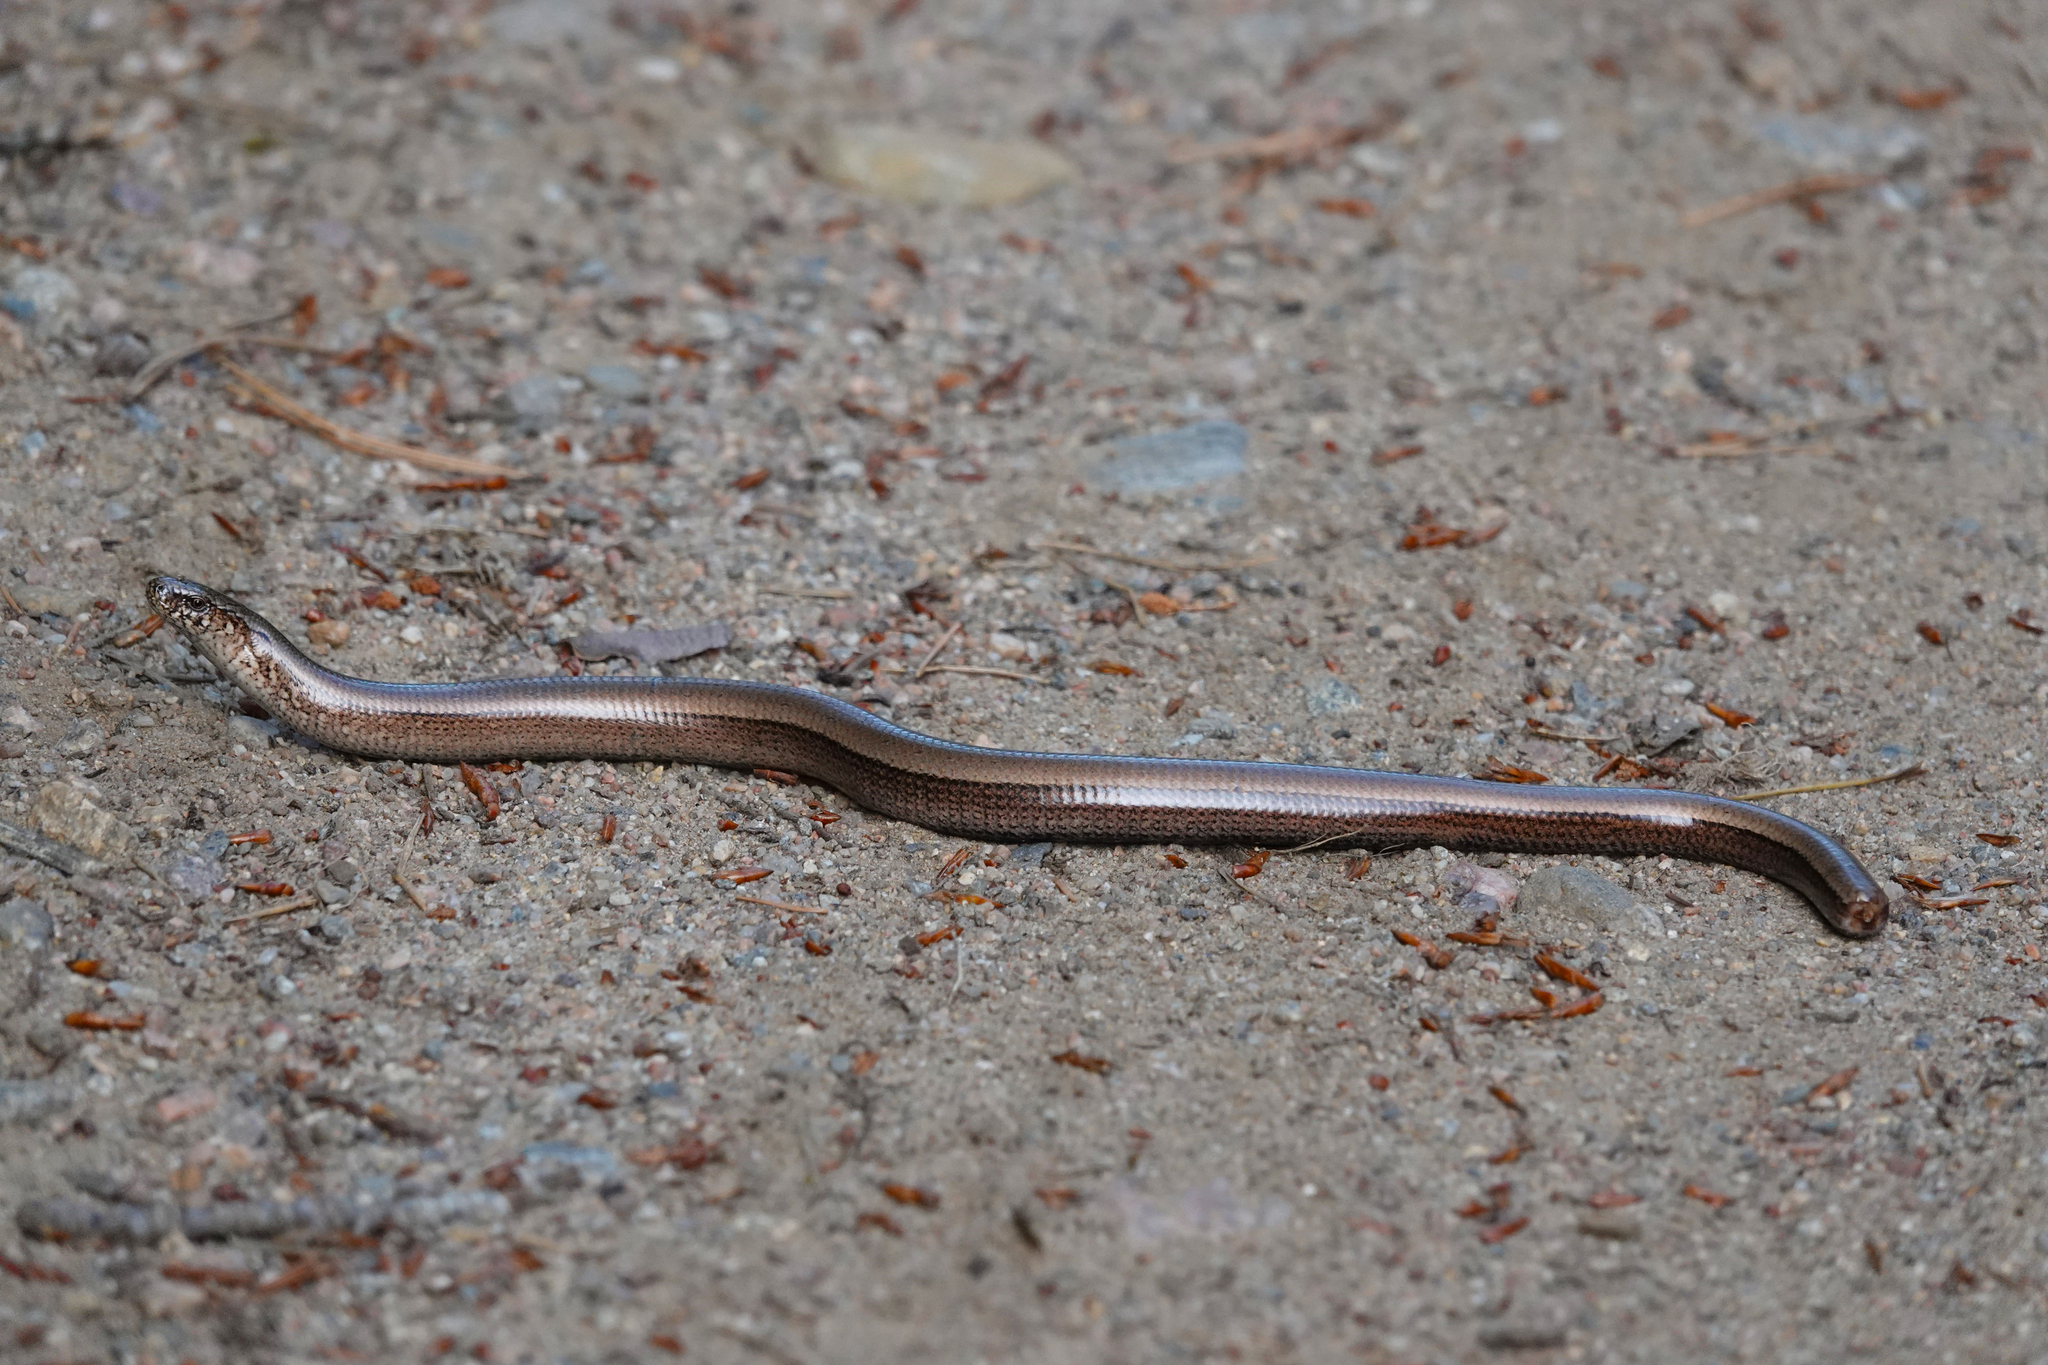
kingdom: Animalia
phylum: Chordata
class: Squamata
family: Anguidae
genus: Anguis
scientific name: Anguis colchica
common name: Slow worm
